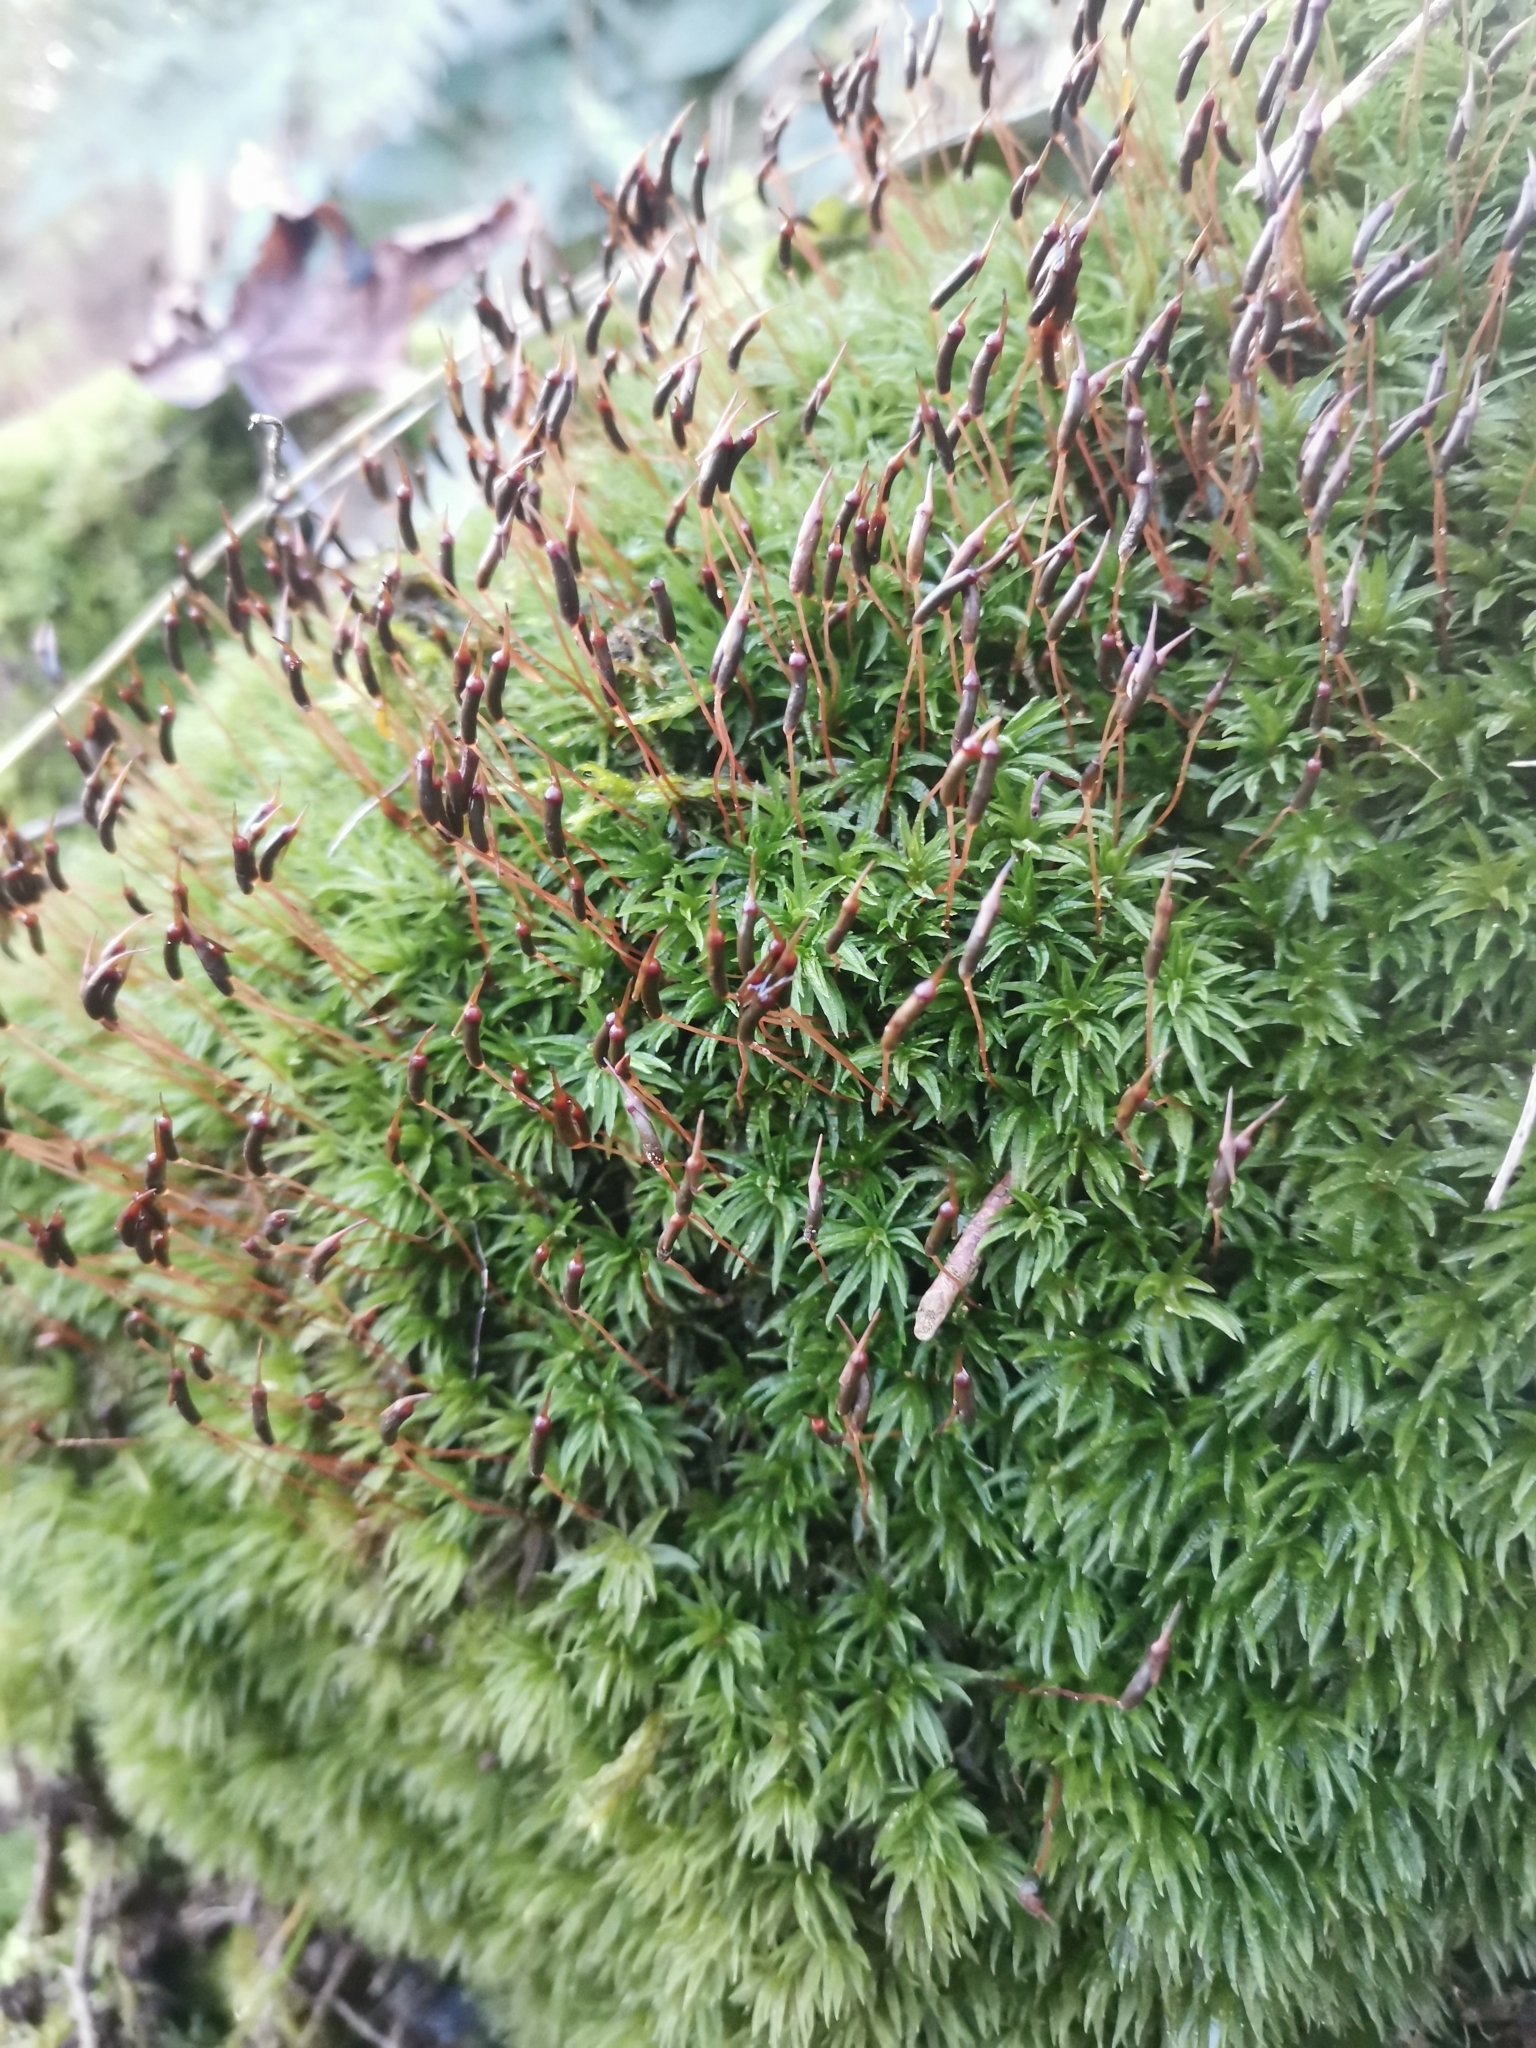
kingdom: Plantae
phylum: Bryophyta
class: Polytrichopsida
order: Polytrichales
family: Polytrichaceae
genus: Atrichum
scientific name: Atrichum undulatum
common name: Common smoothcap
